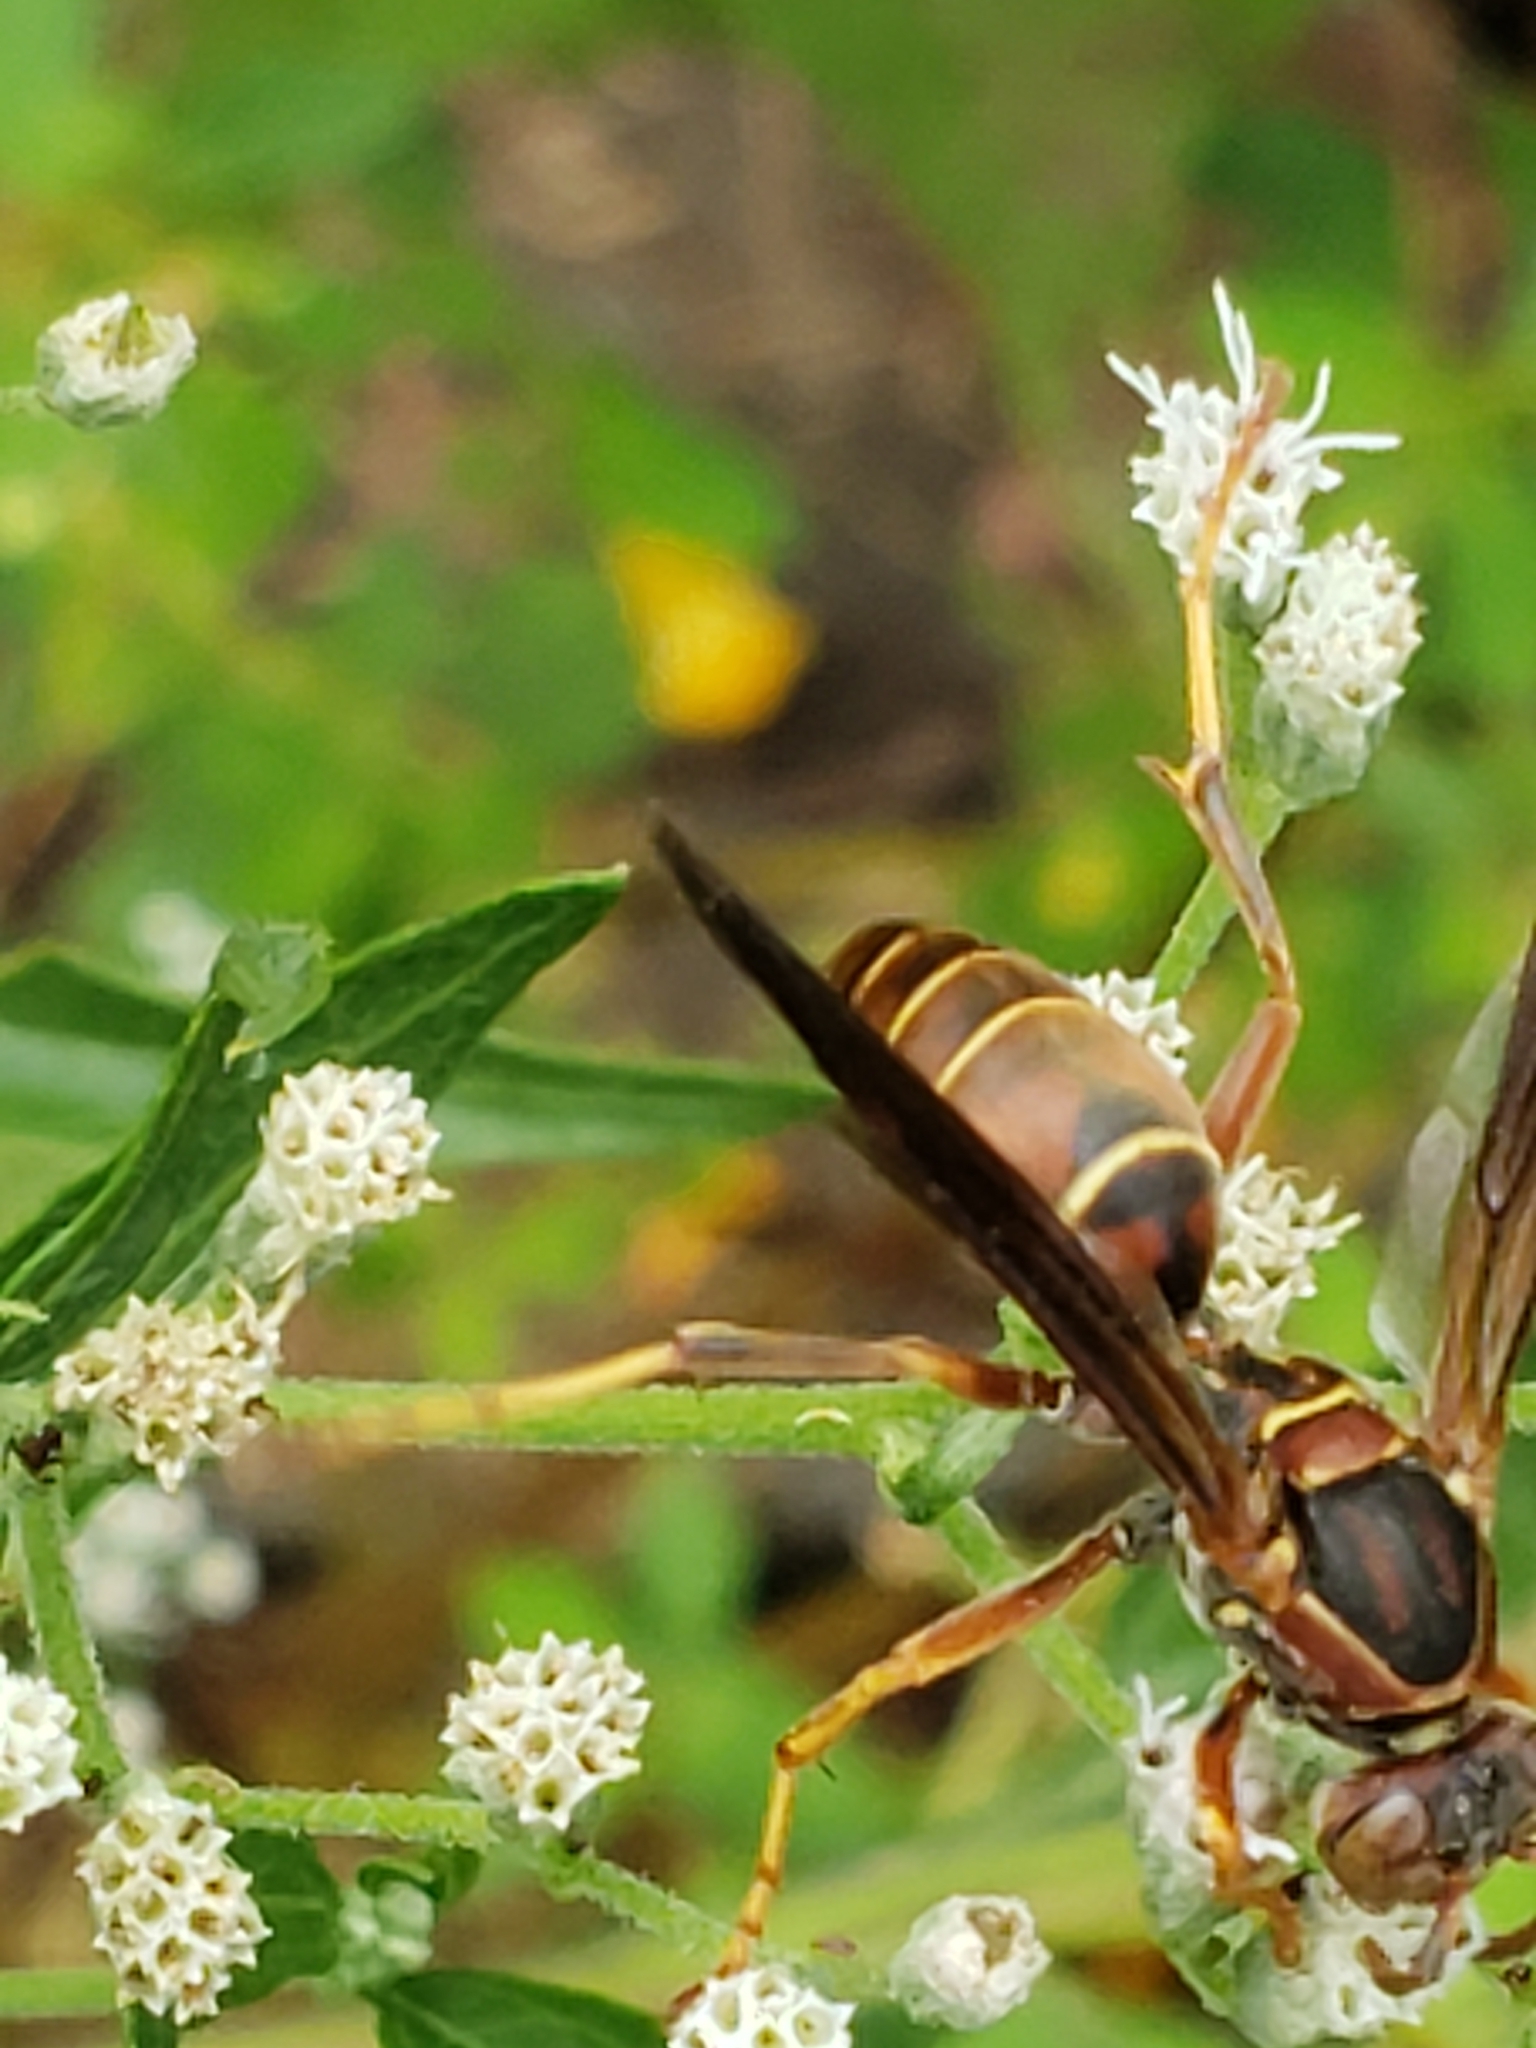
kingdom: Animalia
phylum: Arthropoda
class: Insecta
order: Hymenoptera
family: Eumenidae
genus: Polistes
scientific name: Polistes fuscatus
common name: Dark paper wasp
